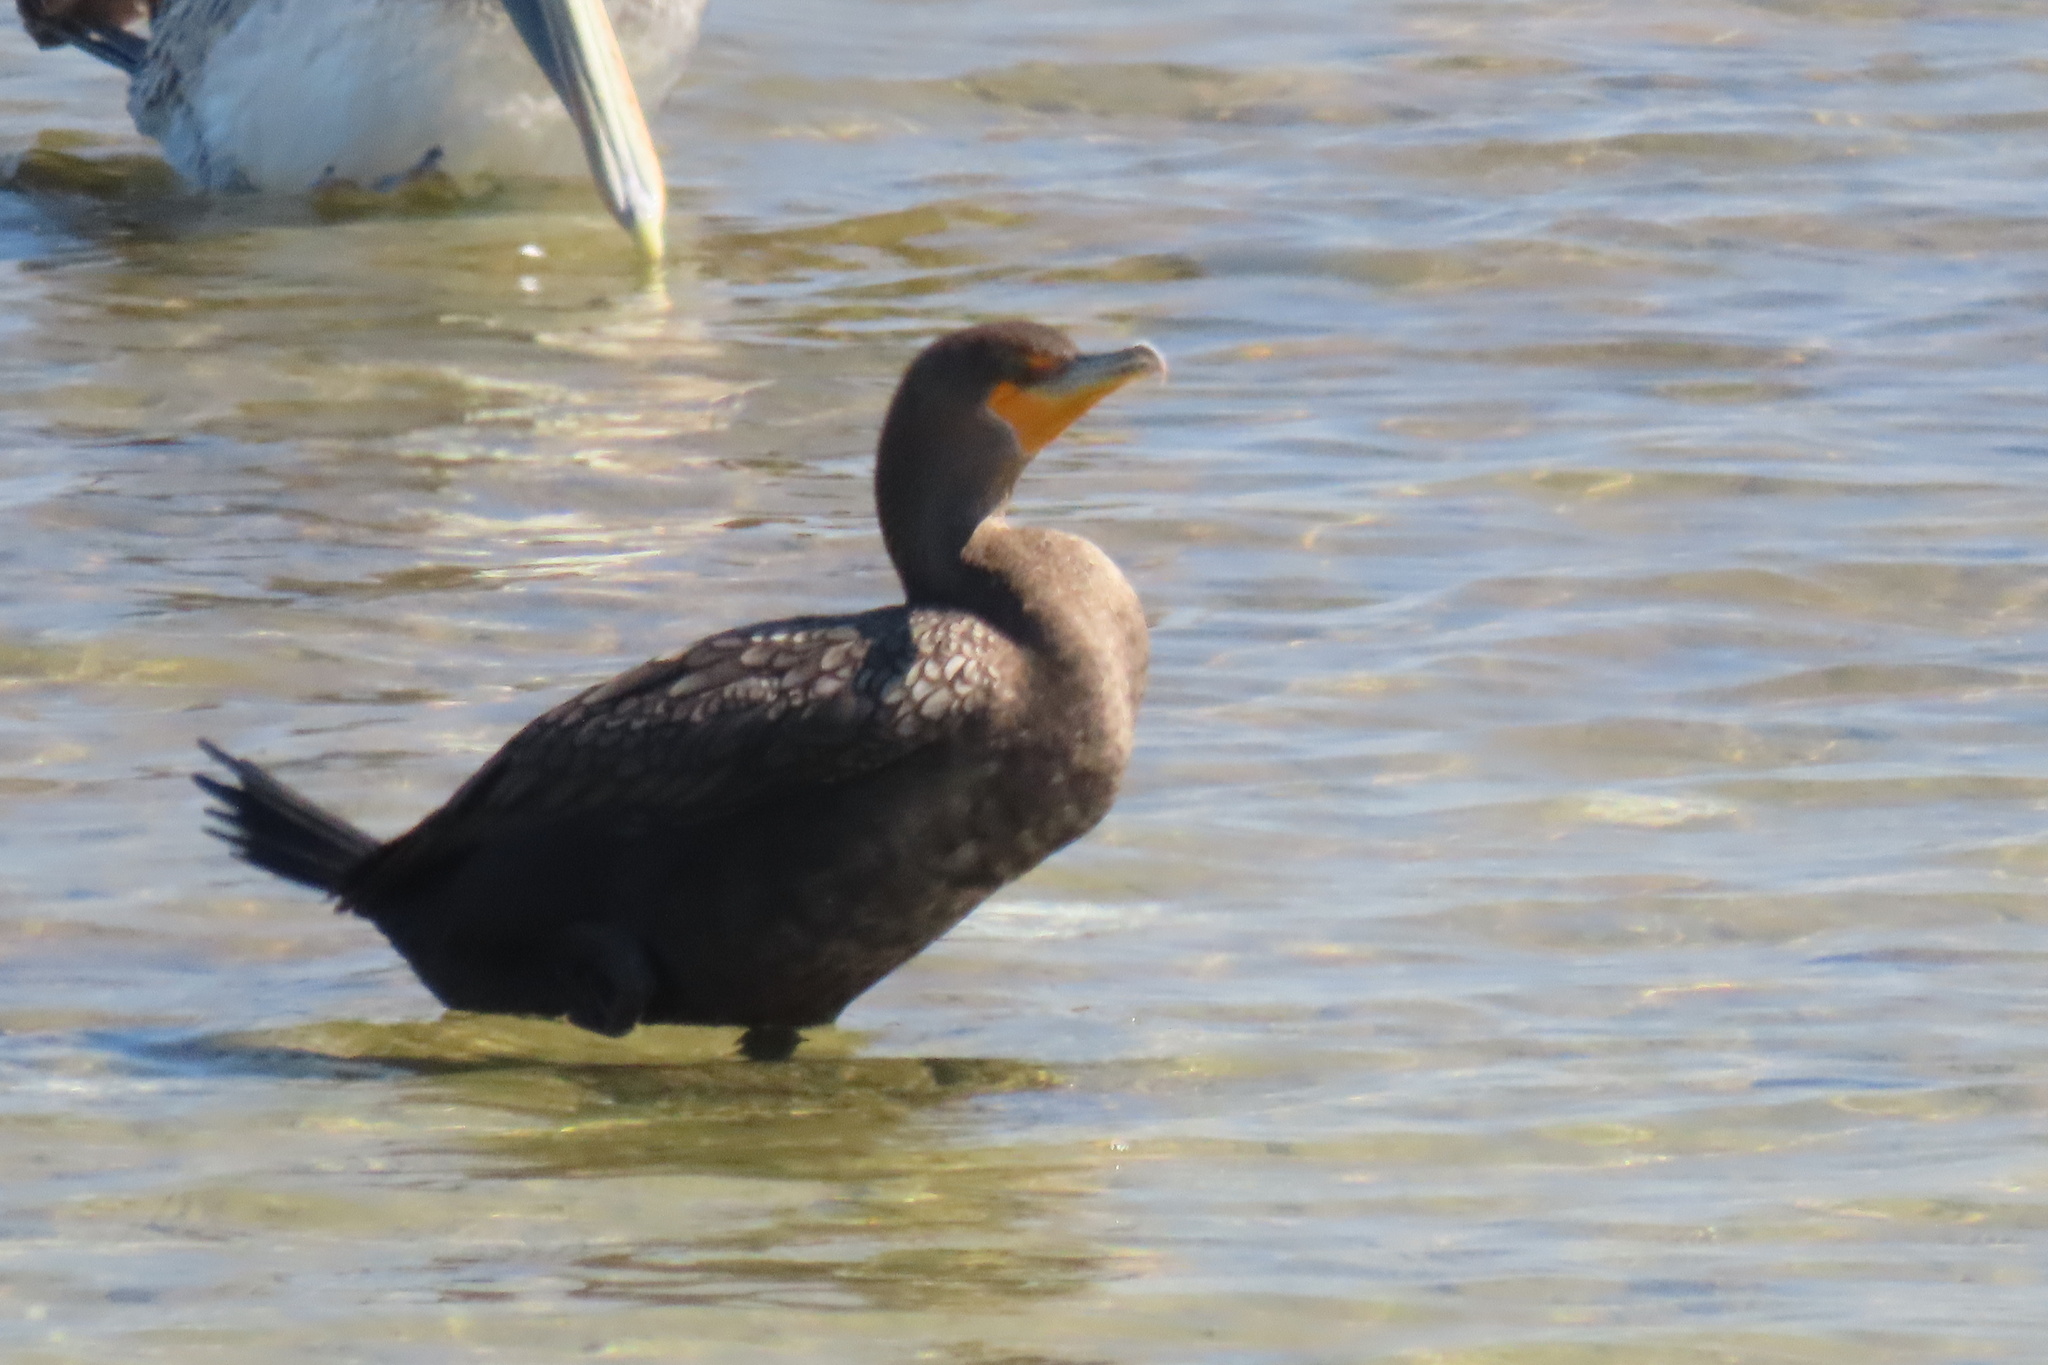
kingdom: Animalia
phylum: Chordata
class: Aves
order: Suliformes
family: Phalacrocoracidae
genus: Phalacrocorax
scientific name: Phalacrocorax auritus
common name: Double-crested cormorant
